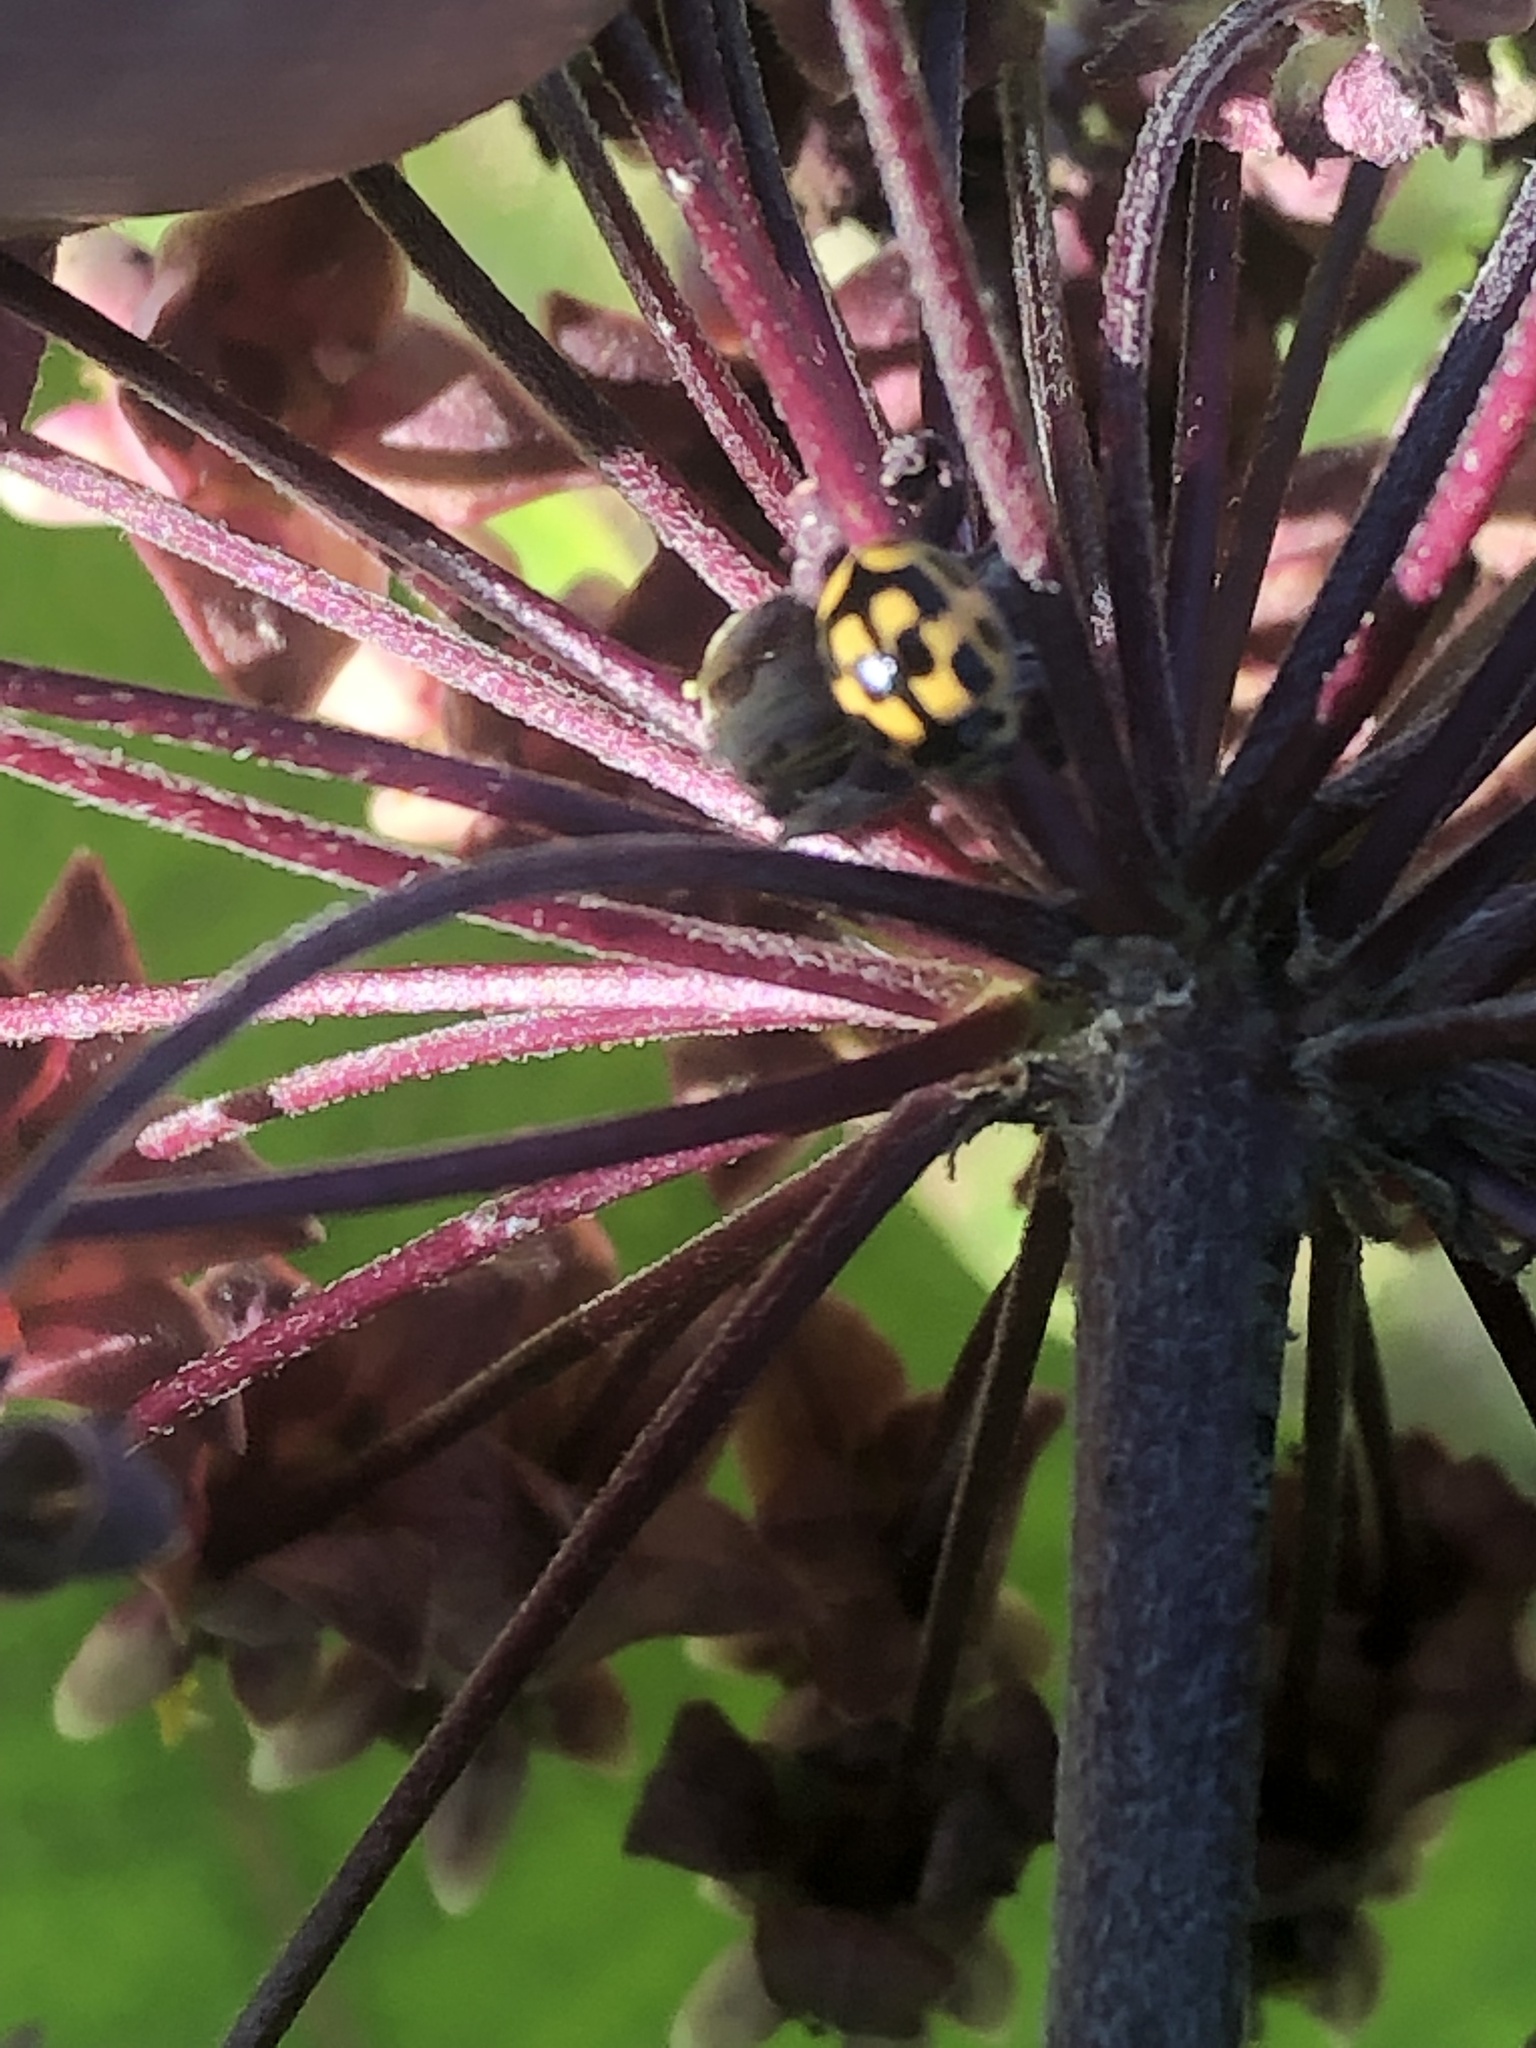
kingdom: Animalia
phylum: Arthropoda
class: Insecta
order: Coleoptera
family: Coccinellidae
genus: Propylaea
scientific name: Propylaea quatuordecimpunctata
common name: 14-spotted ladybird beetle
